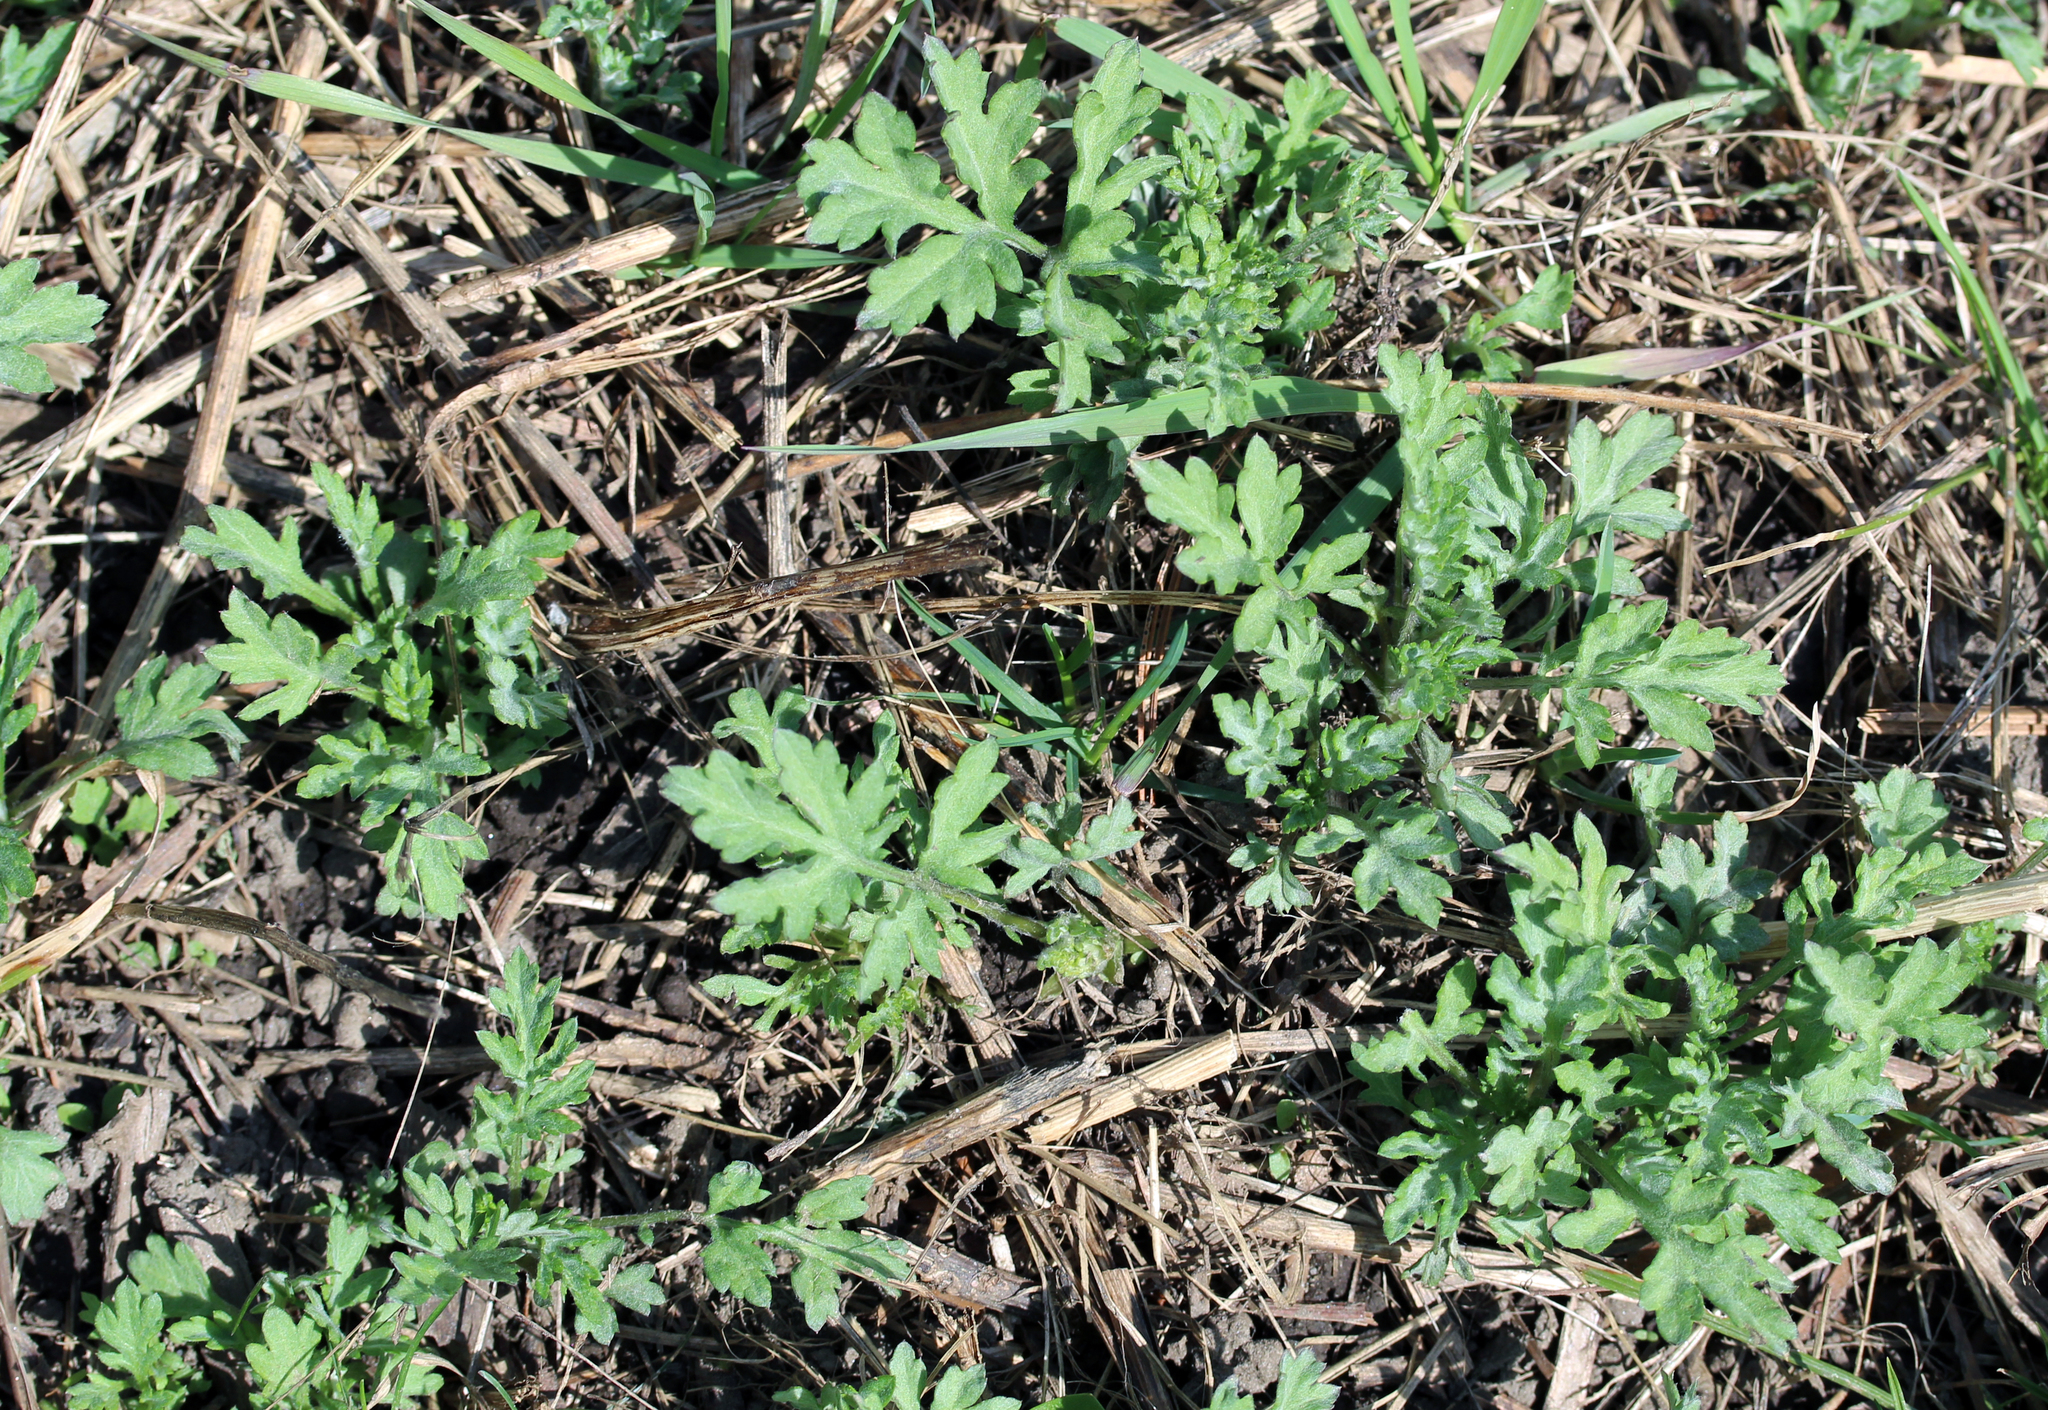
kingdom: Plantae
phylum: Tracheophyta
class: Magnoliopsida
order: Asterales
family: Asteraceae
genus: Artemisia
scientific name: Artemisia vulgaris
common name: Mugwort
